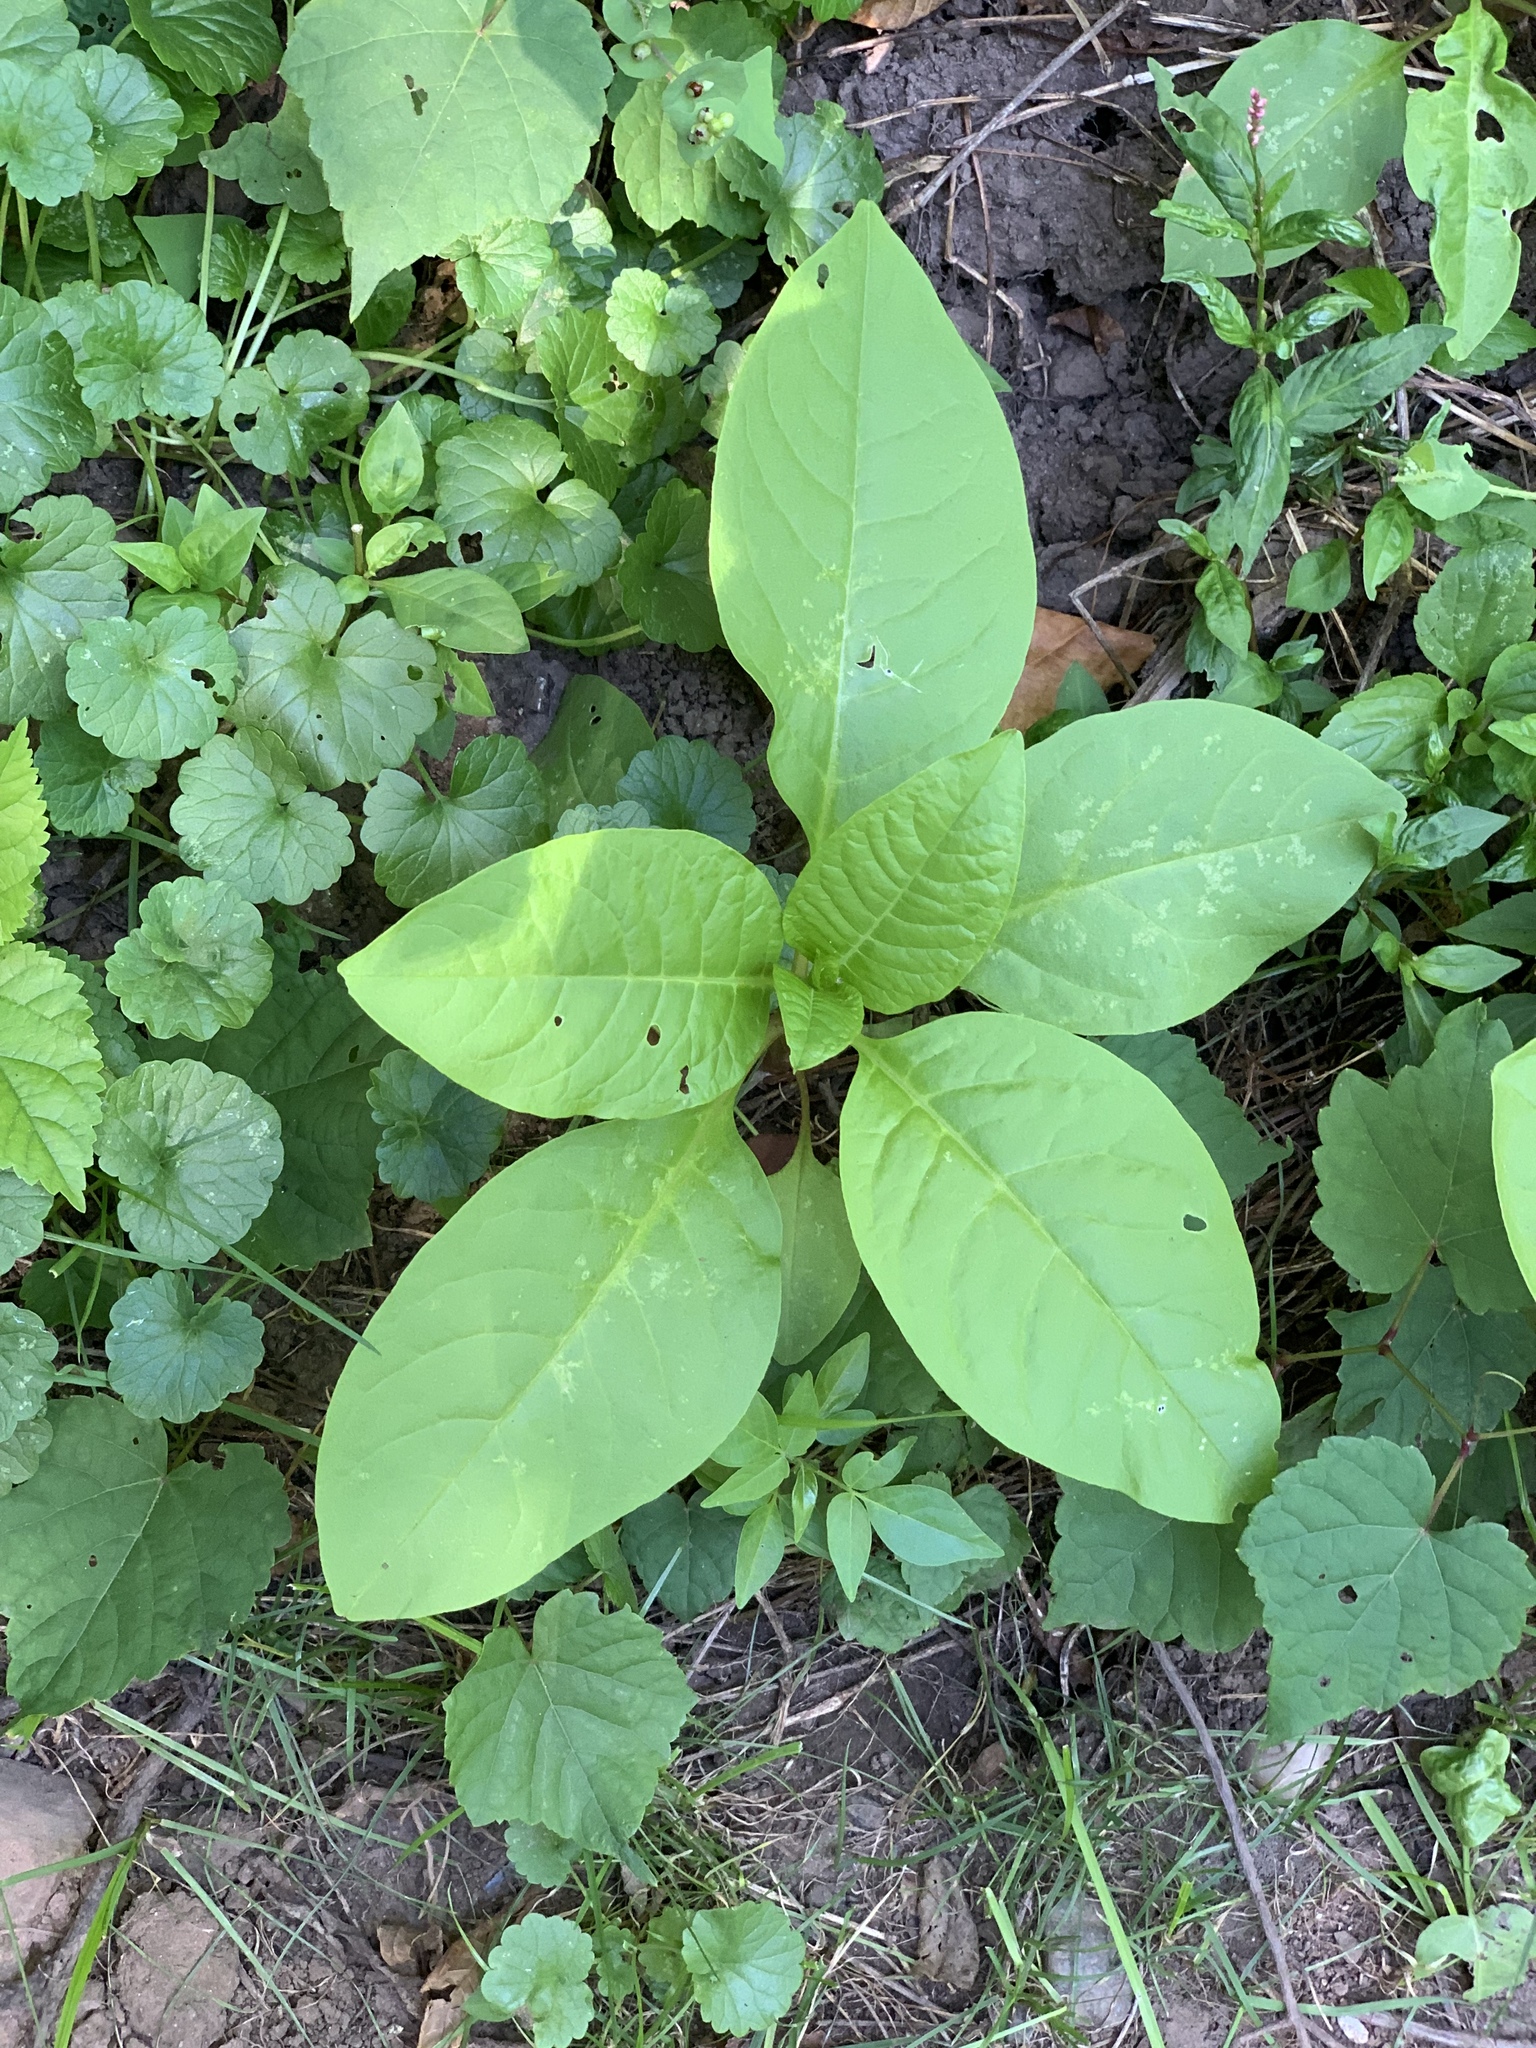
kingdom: Plantae
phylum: Tracheophyta
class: Magnoliopsida
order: Caryophyllales
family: Phytolaccaceae
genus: Phytolacca
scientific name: Phytolacca americana
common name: American pokeweed
